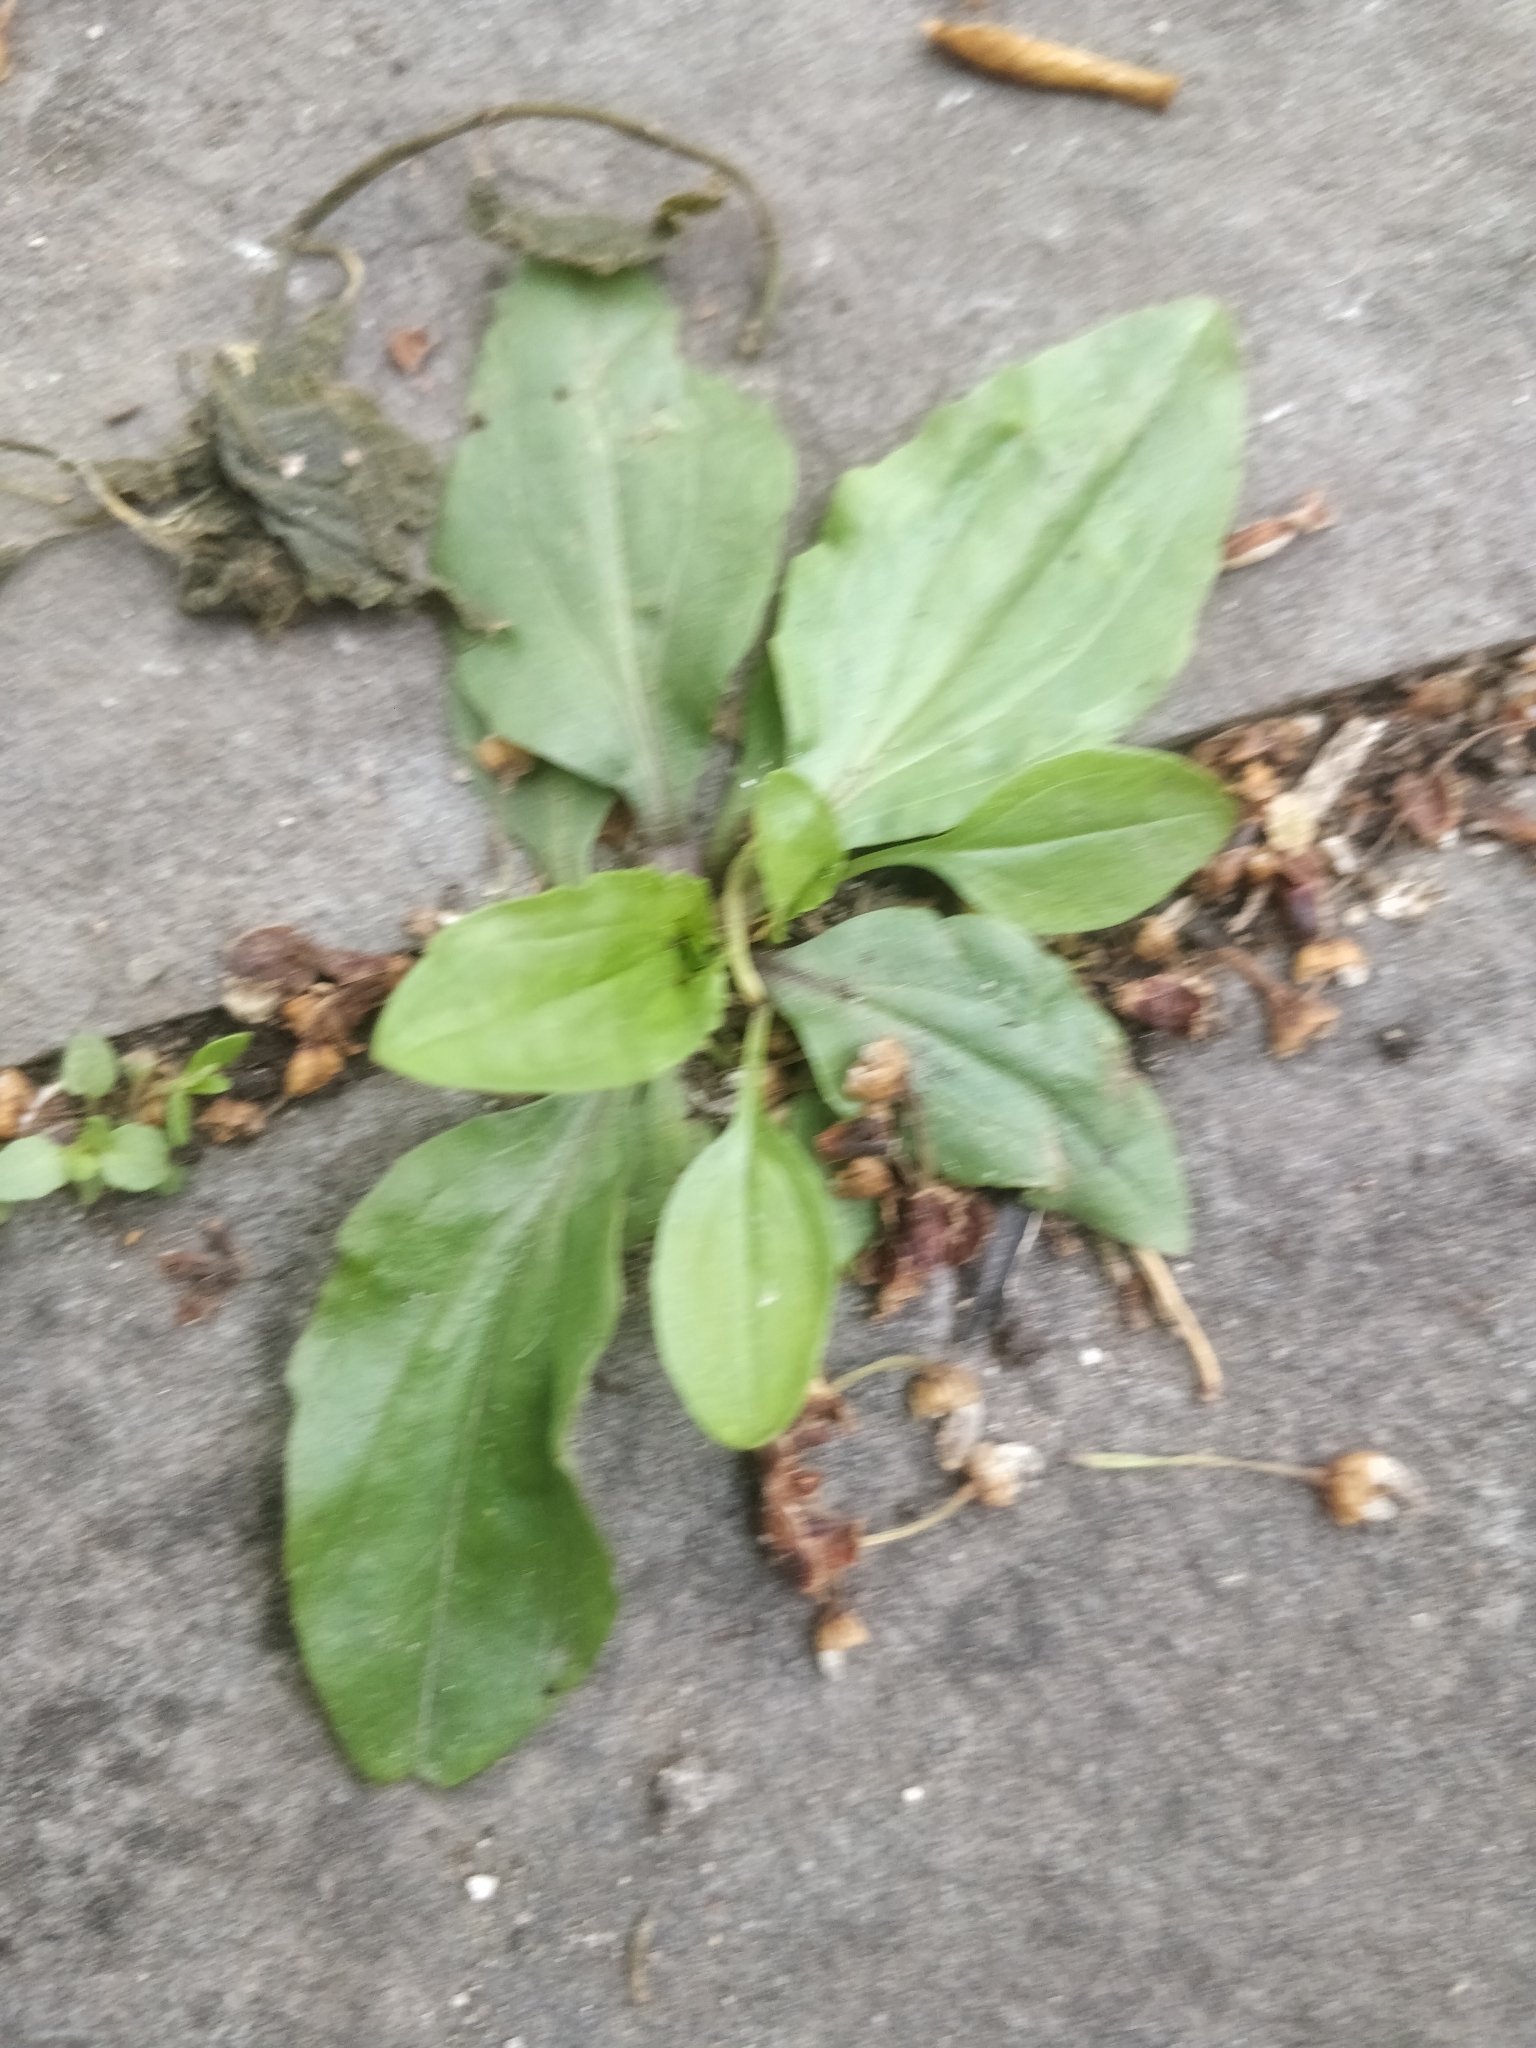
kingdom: Plantae
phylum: Tracheophyta
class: Magnoliopsida
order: Lamiales
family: Plantaginaceae
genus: Plantago
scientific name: Plantago rugelii
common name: American plantain
